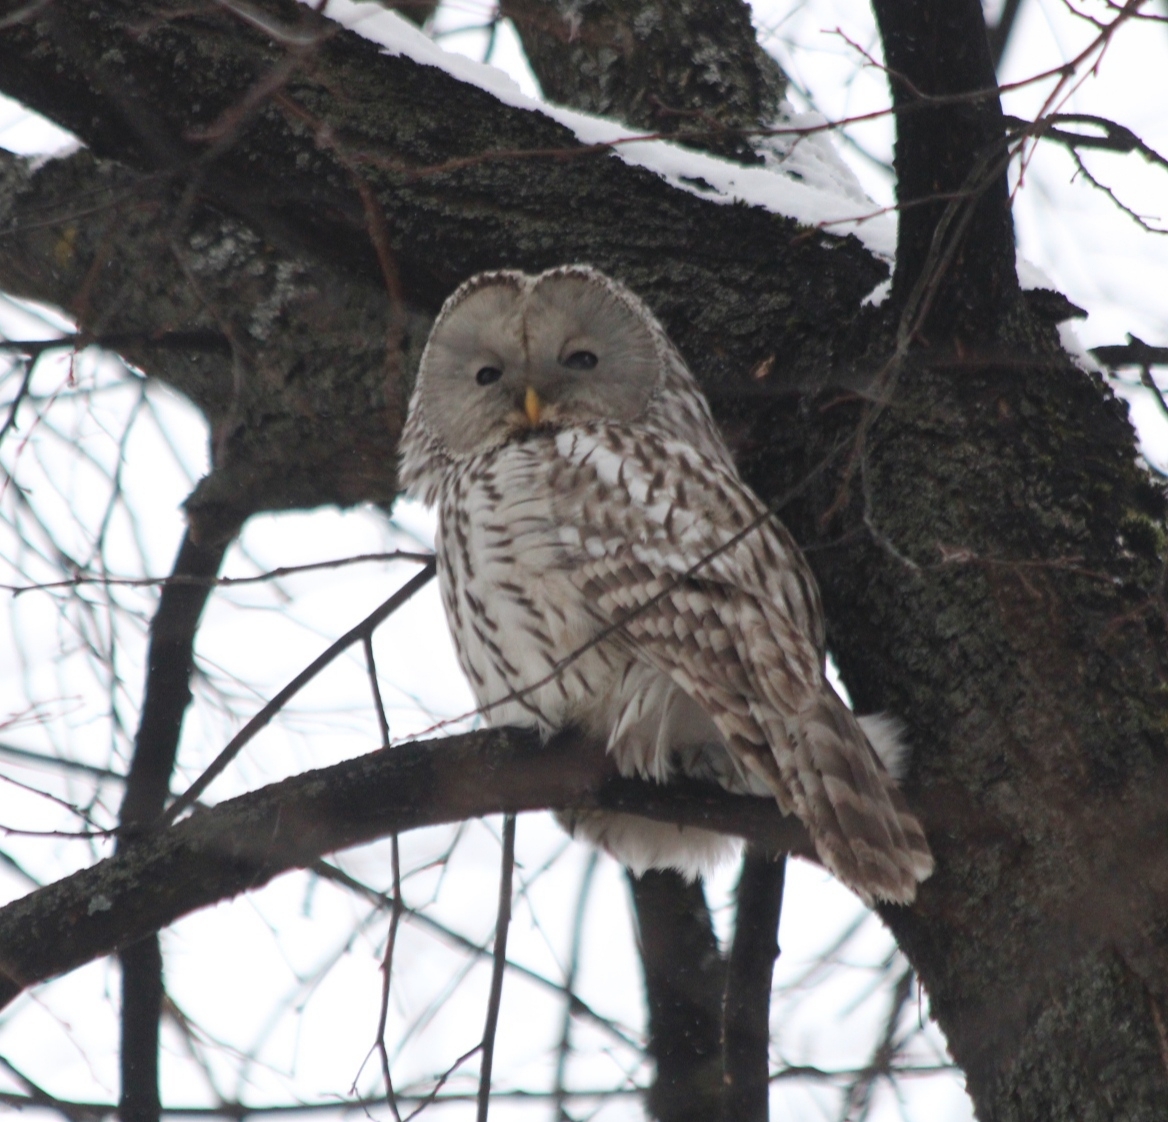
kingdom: Animalia
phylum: Chordata
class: Aves
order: Strigiformes
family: Strigidae
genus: Strix
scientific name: Strix uralensis
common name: Ural owl
